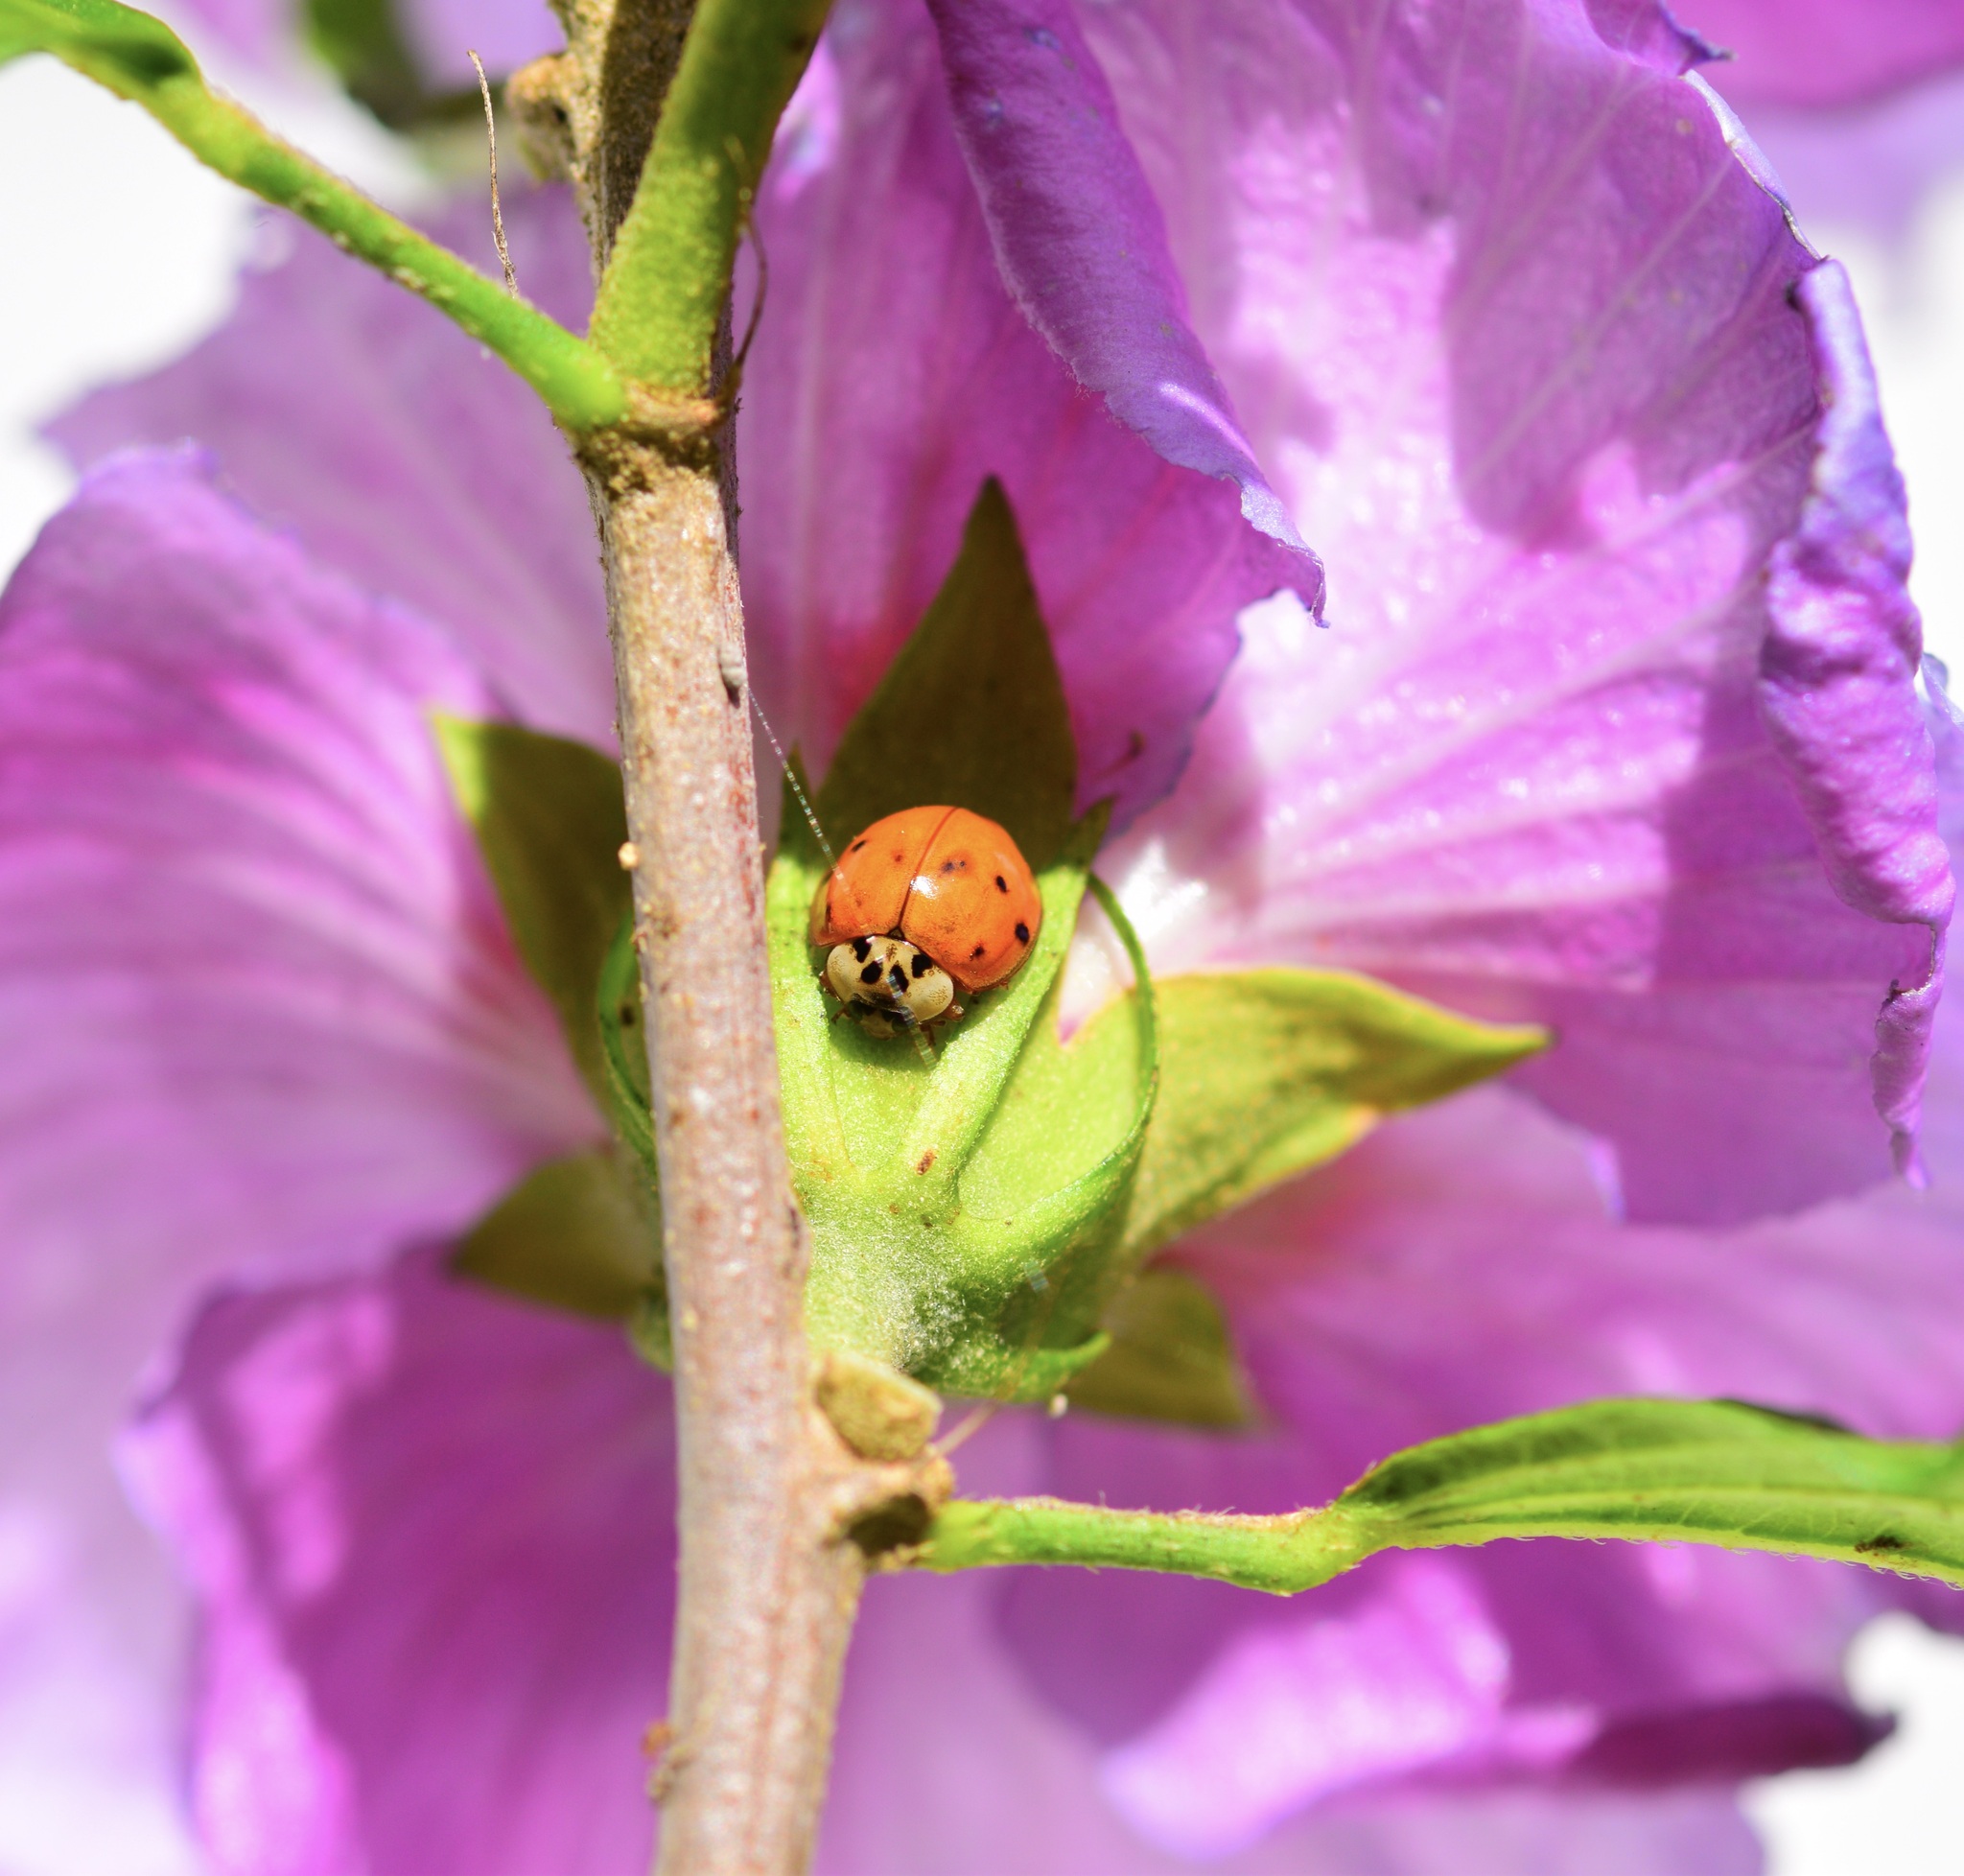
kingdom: Animalia
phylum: Arthropoda
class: Insecta
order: Coleoptera
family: Coccinellidae
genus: Harmonia
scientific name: Harmonia axyridis
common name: Harlequin ladybird
